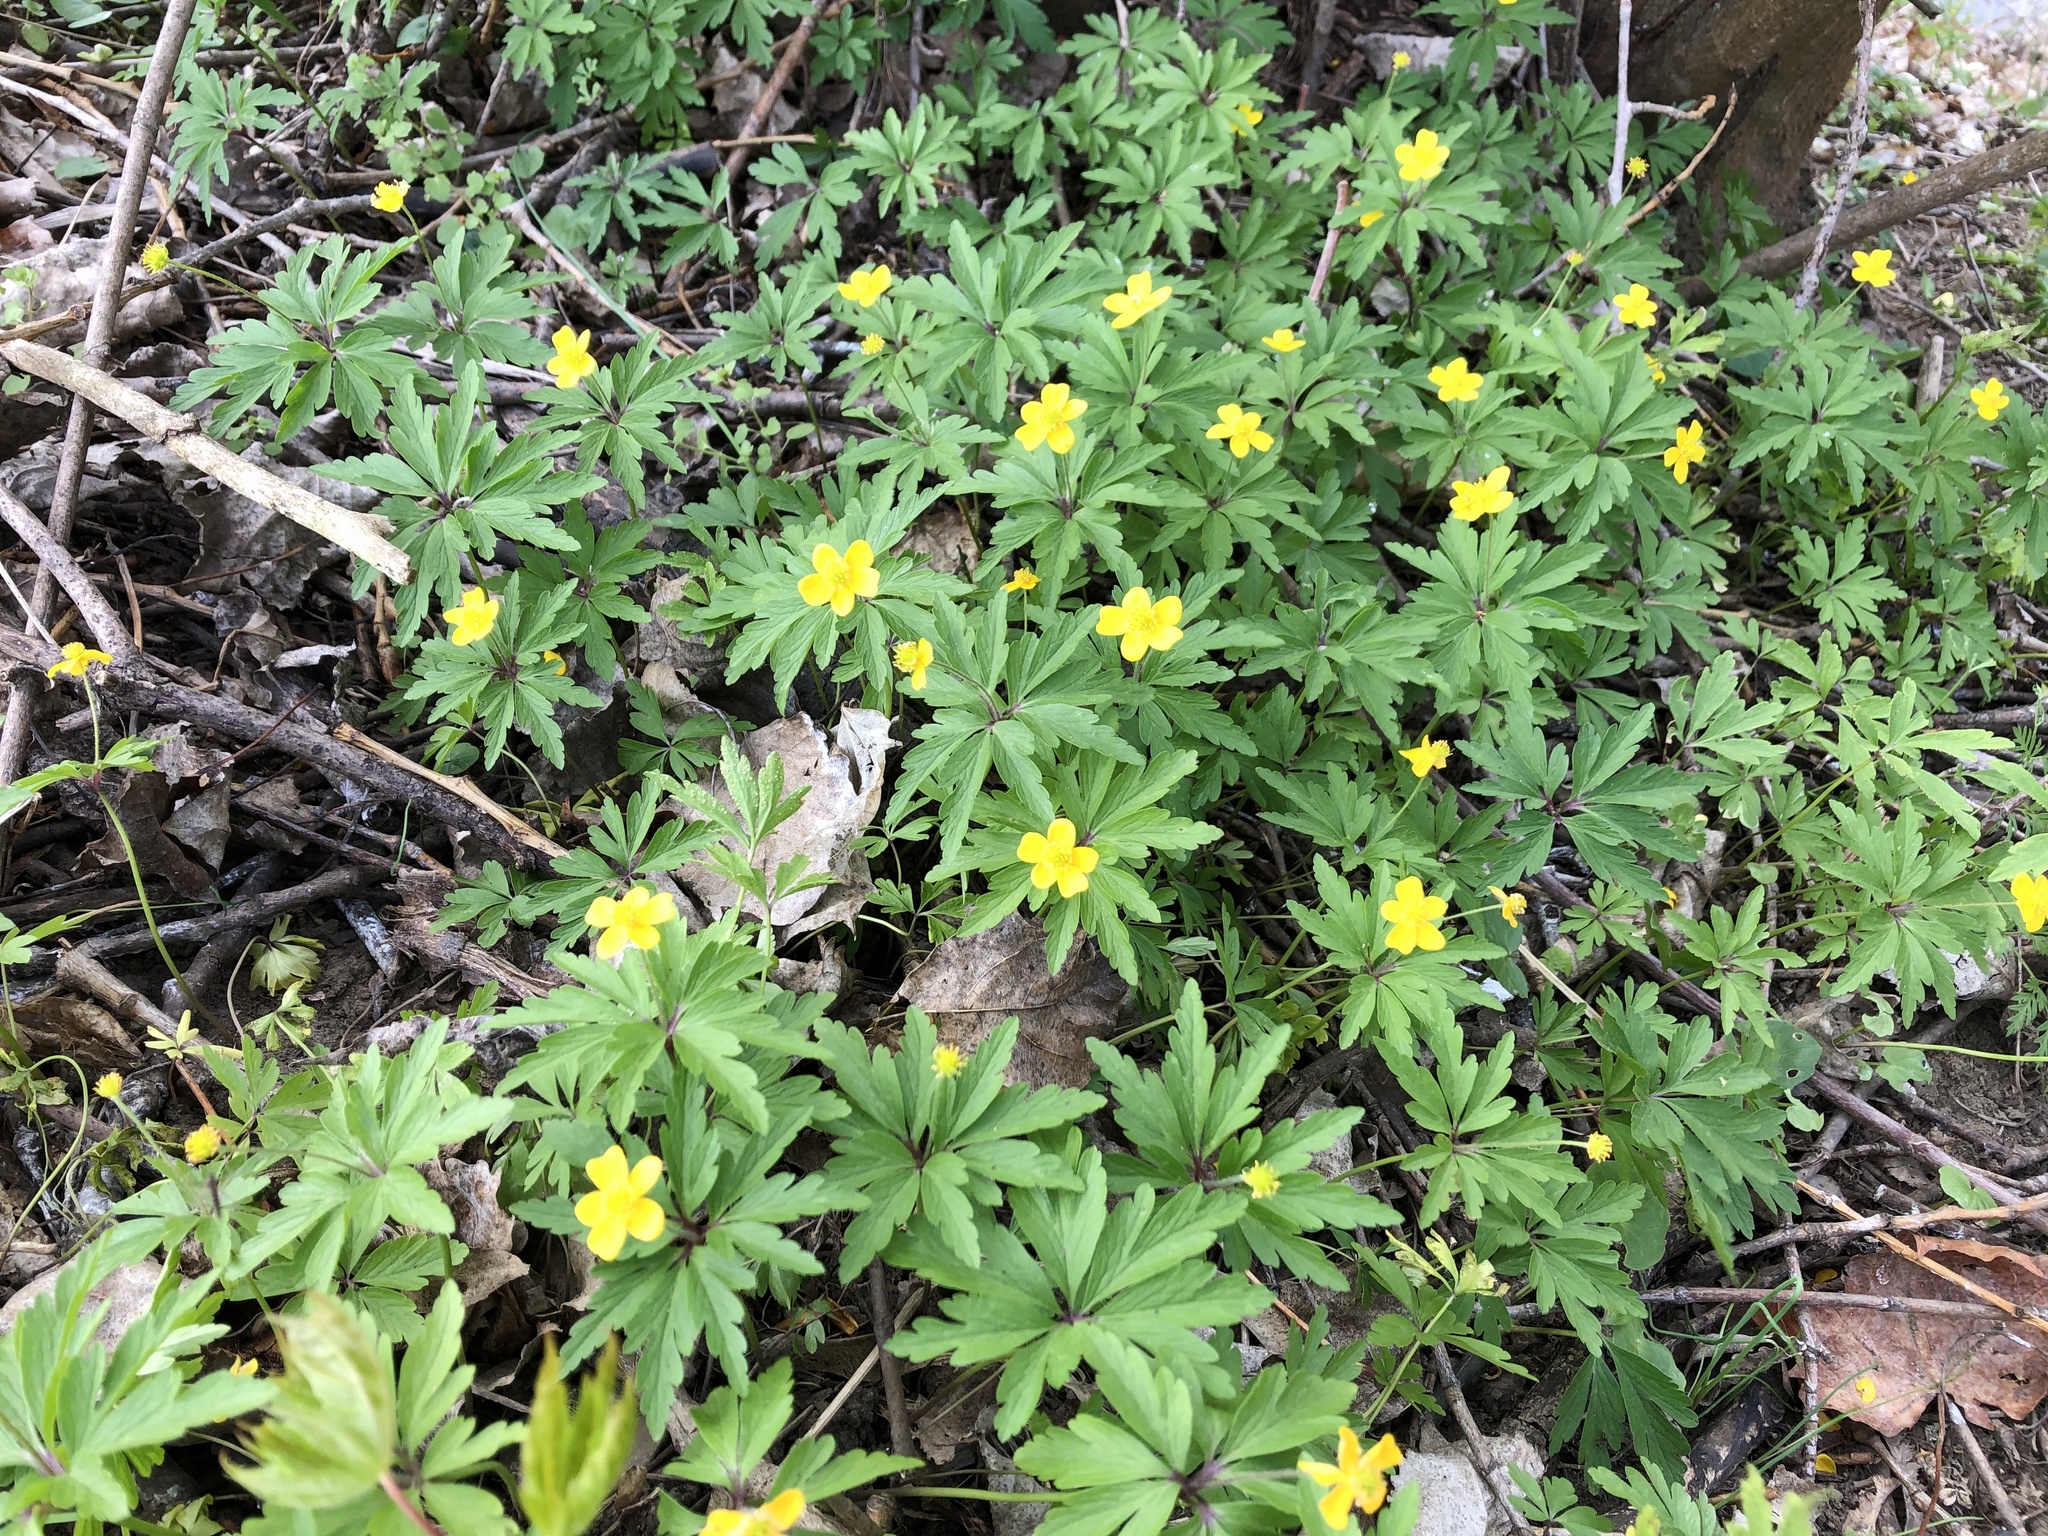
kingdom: Plantae
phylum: Tracheophyta
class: Magnoliopsida
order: Ranunculales
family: Ranunculaceae
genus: Anemone
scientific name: Anemone ranunculoides
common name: Yellow anemone
